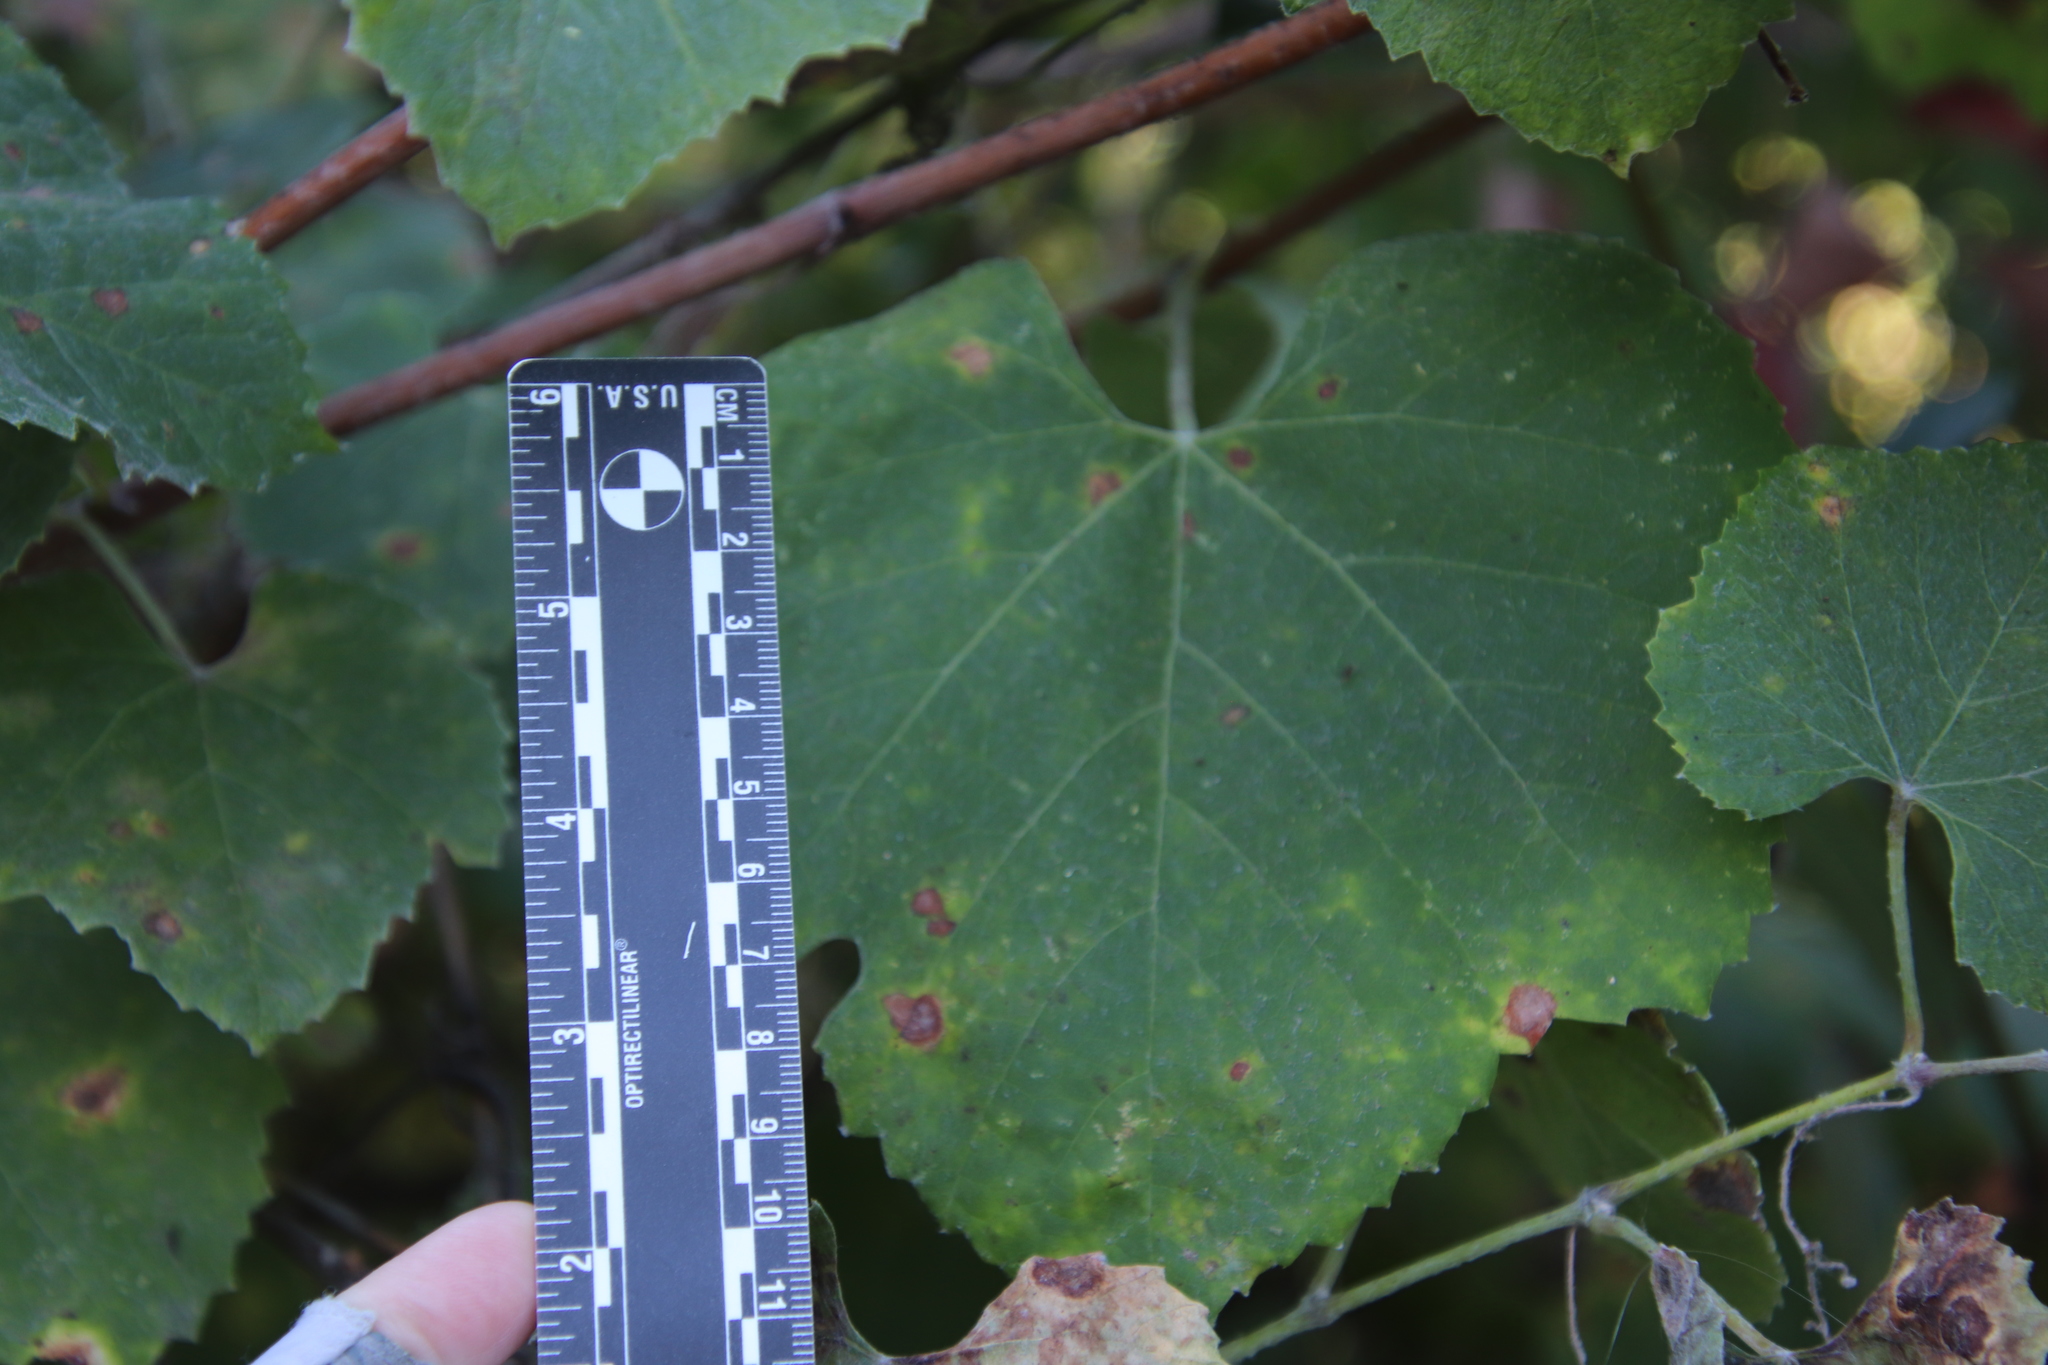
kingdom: Plantae
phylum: Tracheophyta
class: Magnoliopsida
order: Vitales
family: Vitaceae
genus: Vitis
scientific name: Vitis girdiana
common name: Desert wild grape
